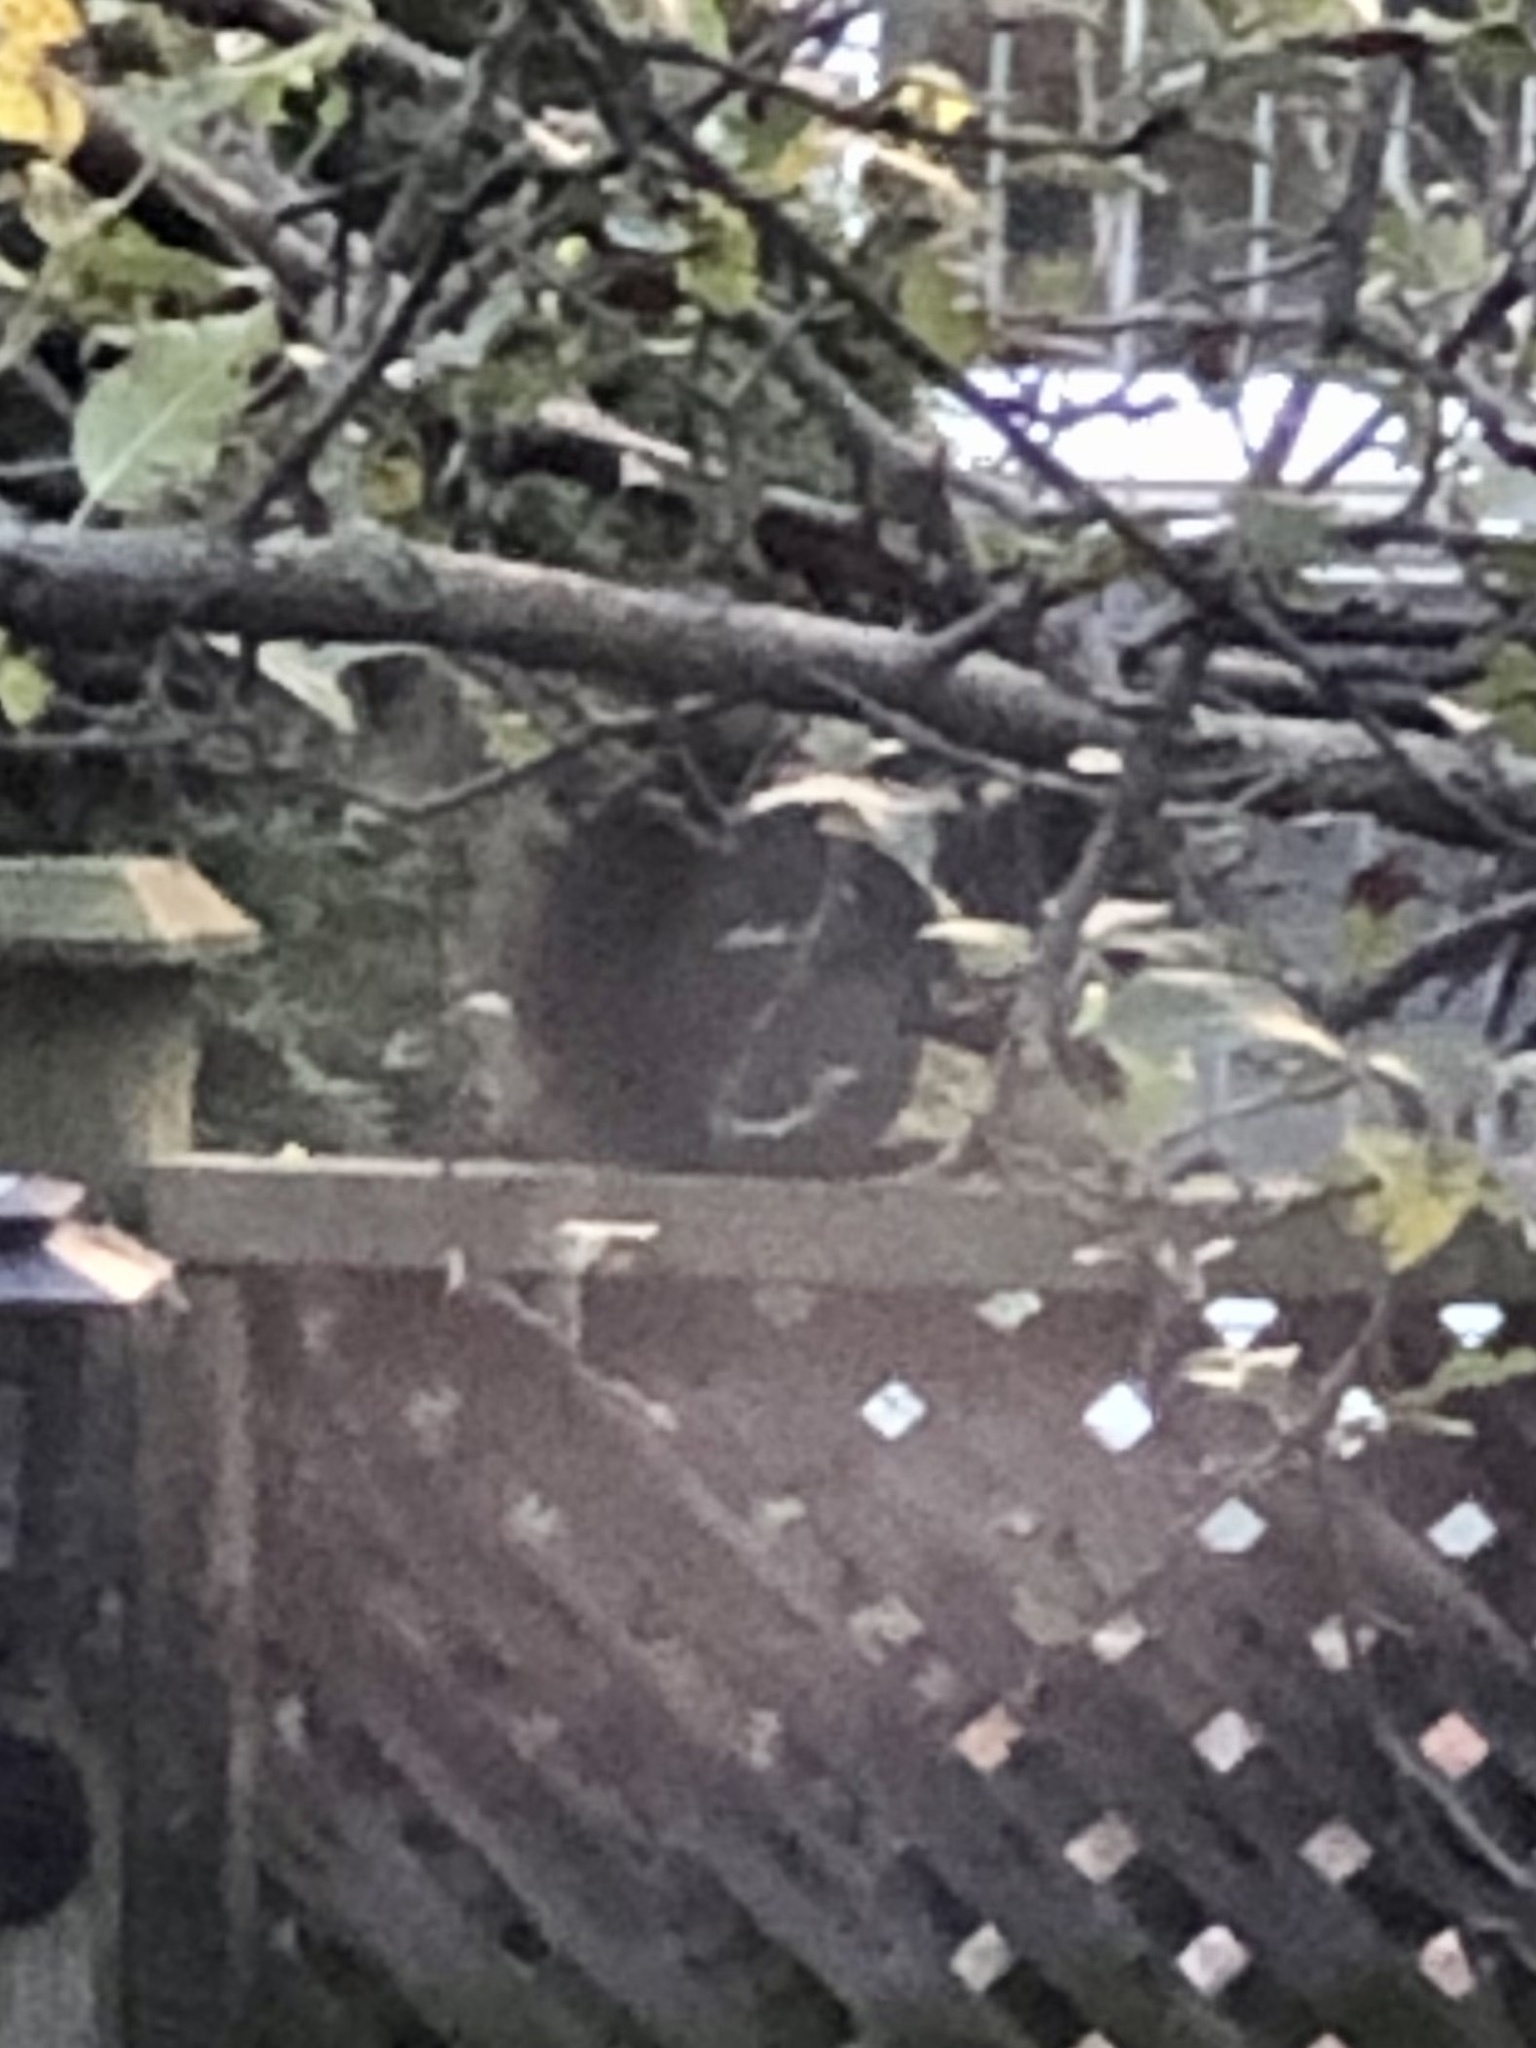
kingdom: Animalia
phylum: Chordata
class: Mammalia
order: Rodentia
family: Sciuridae
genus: Sciurus
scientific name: Sciurus carolinensis
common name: Eastern gray squirrel
